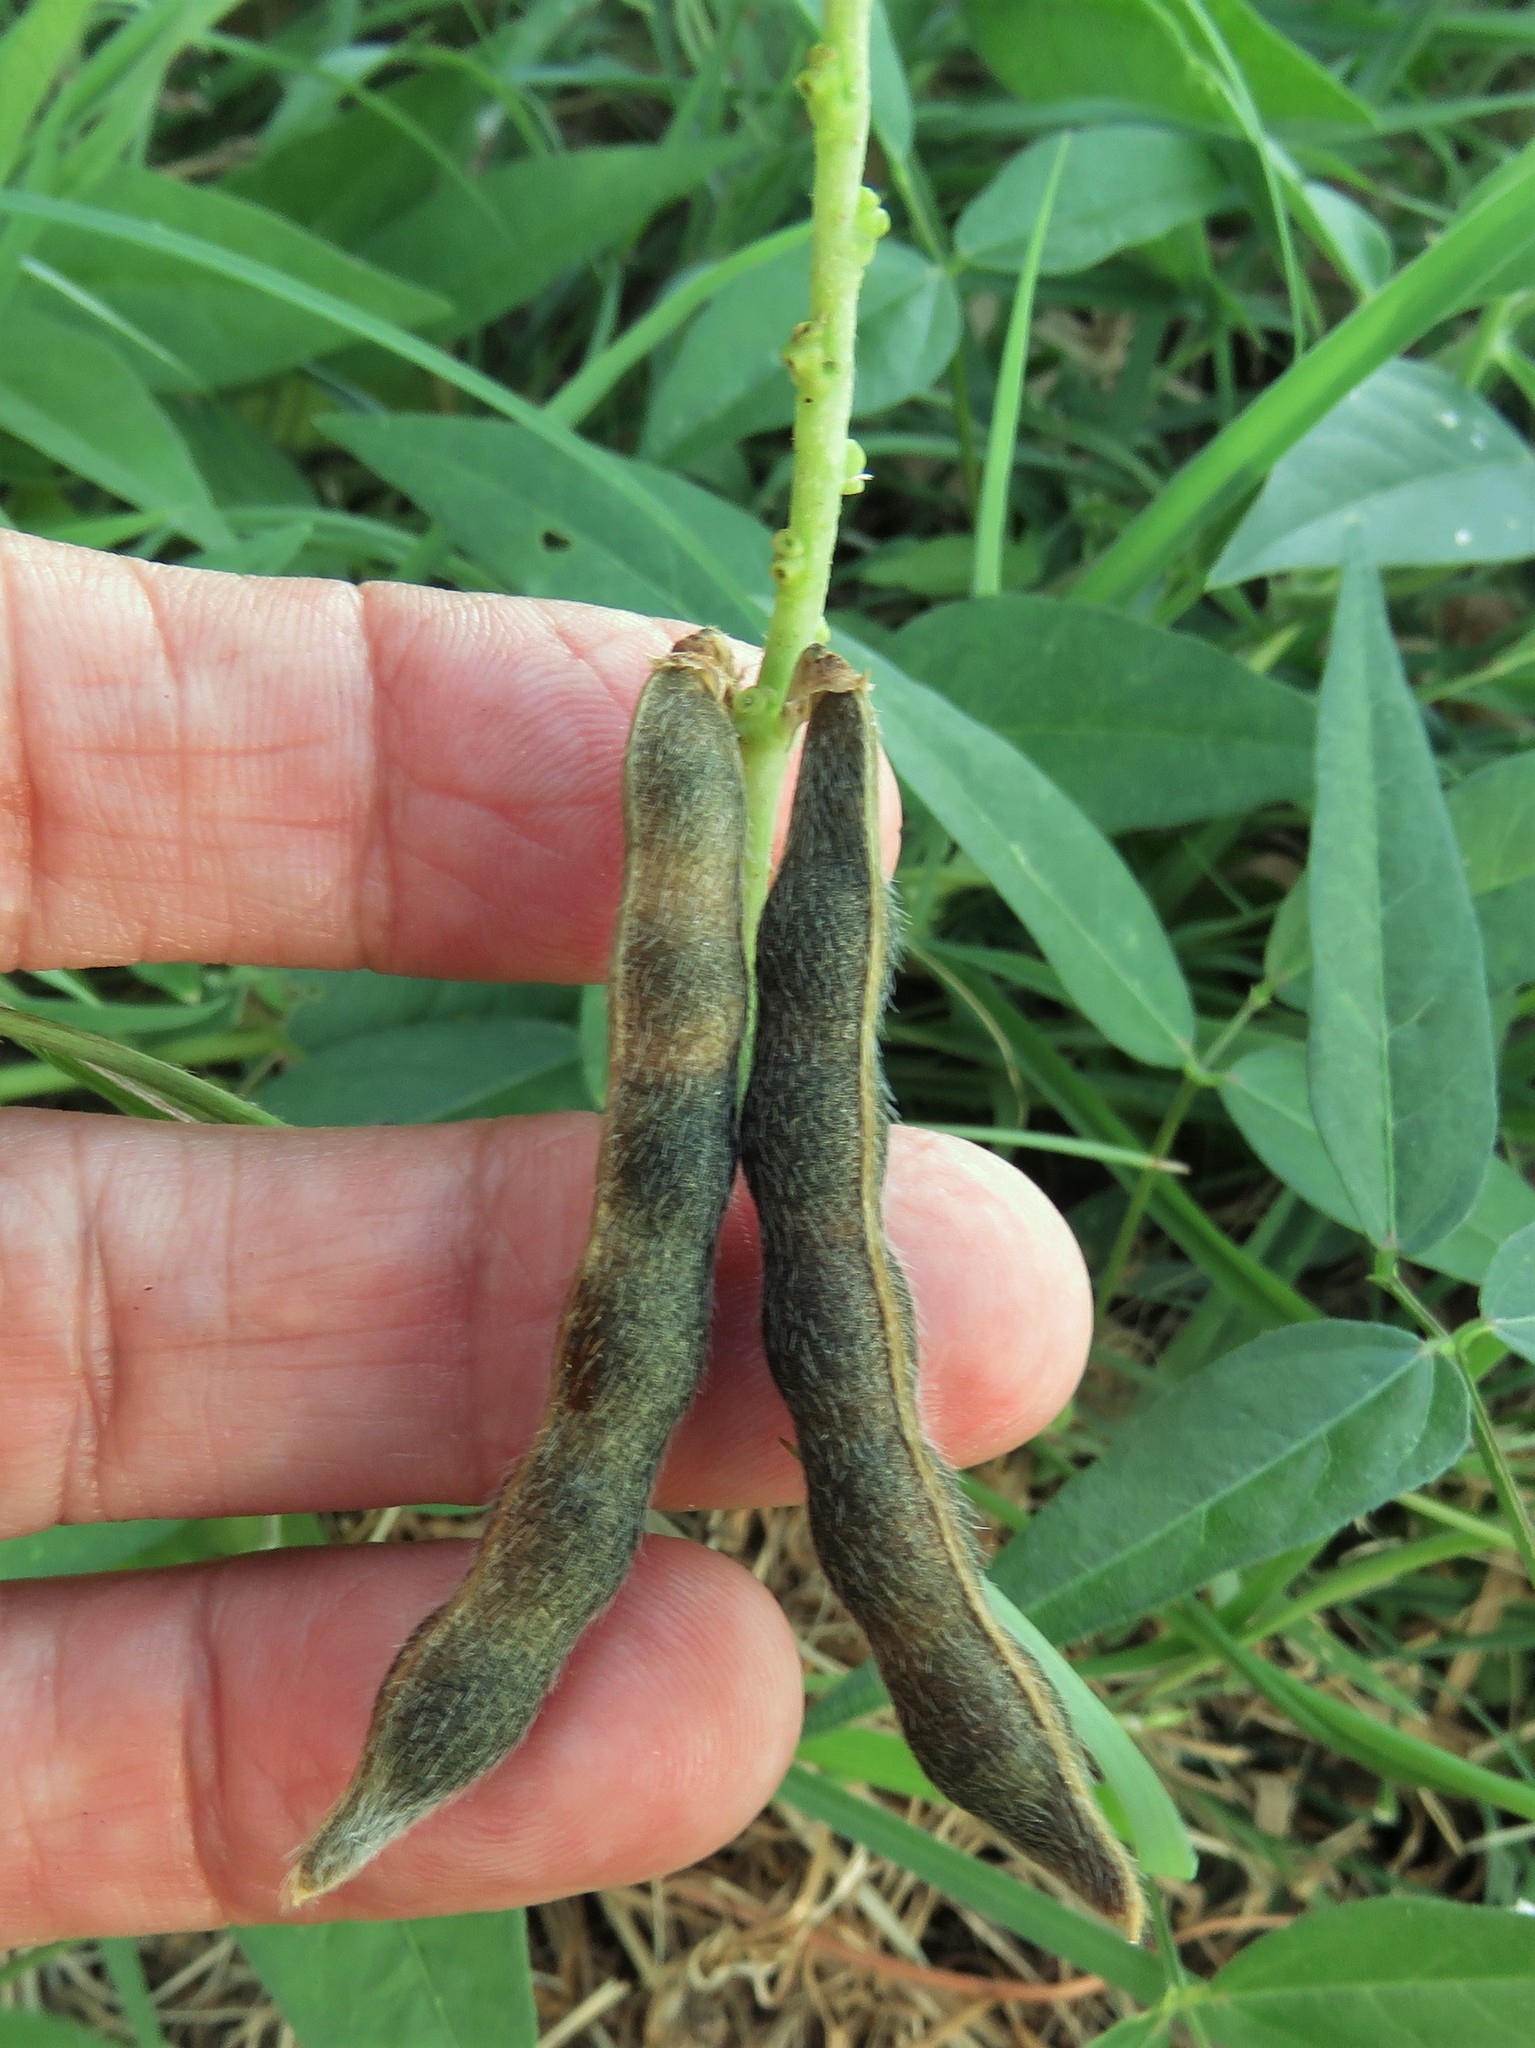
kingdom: Plantae
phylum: Tracheophyta
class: Magnoliopsida
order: Fabales
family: Fabaceae
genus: Vigna
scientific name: Vigna luteola
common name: Hairypod cowpea
